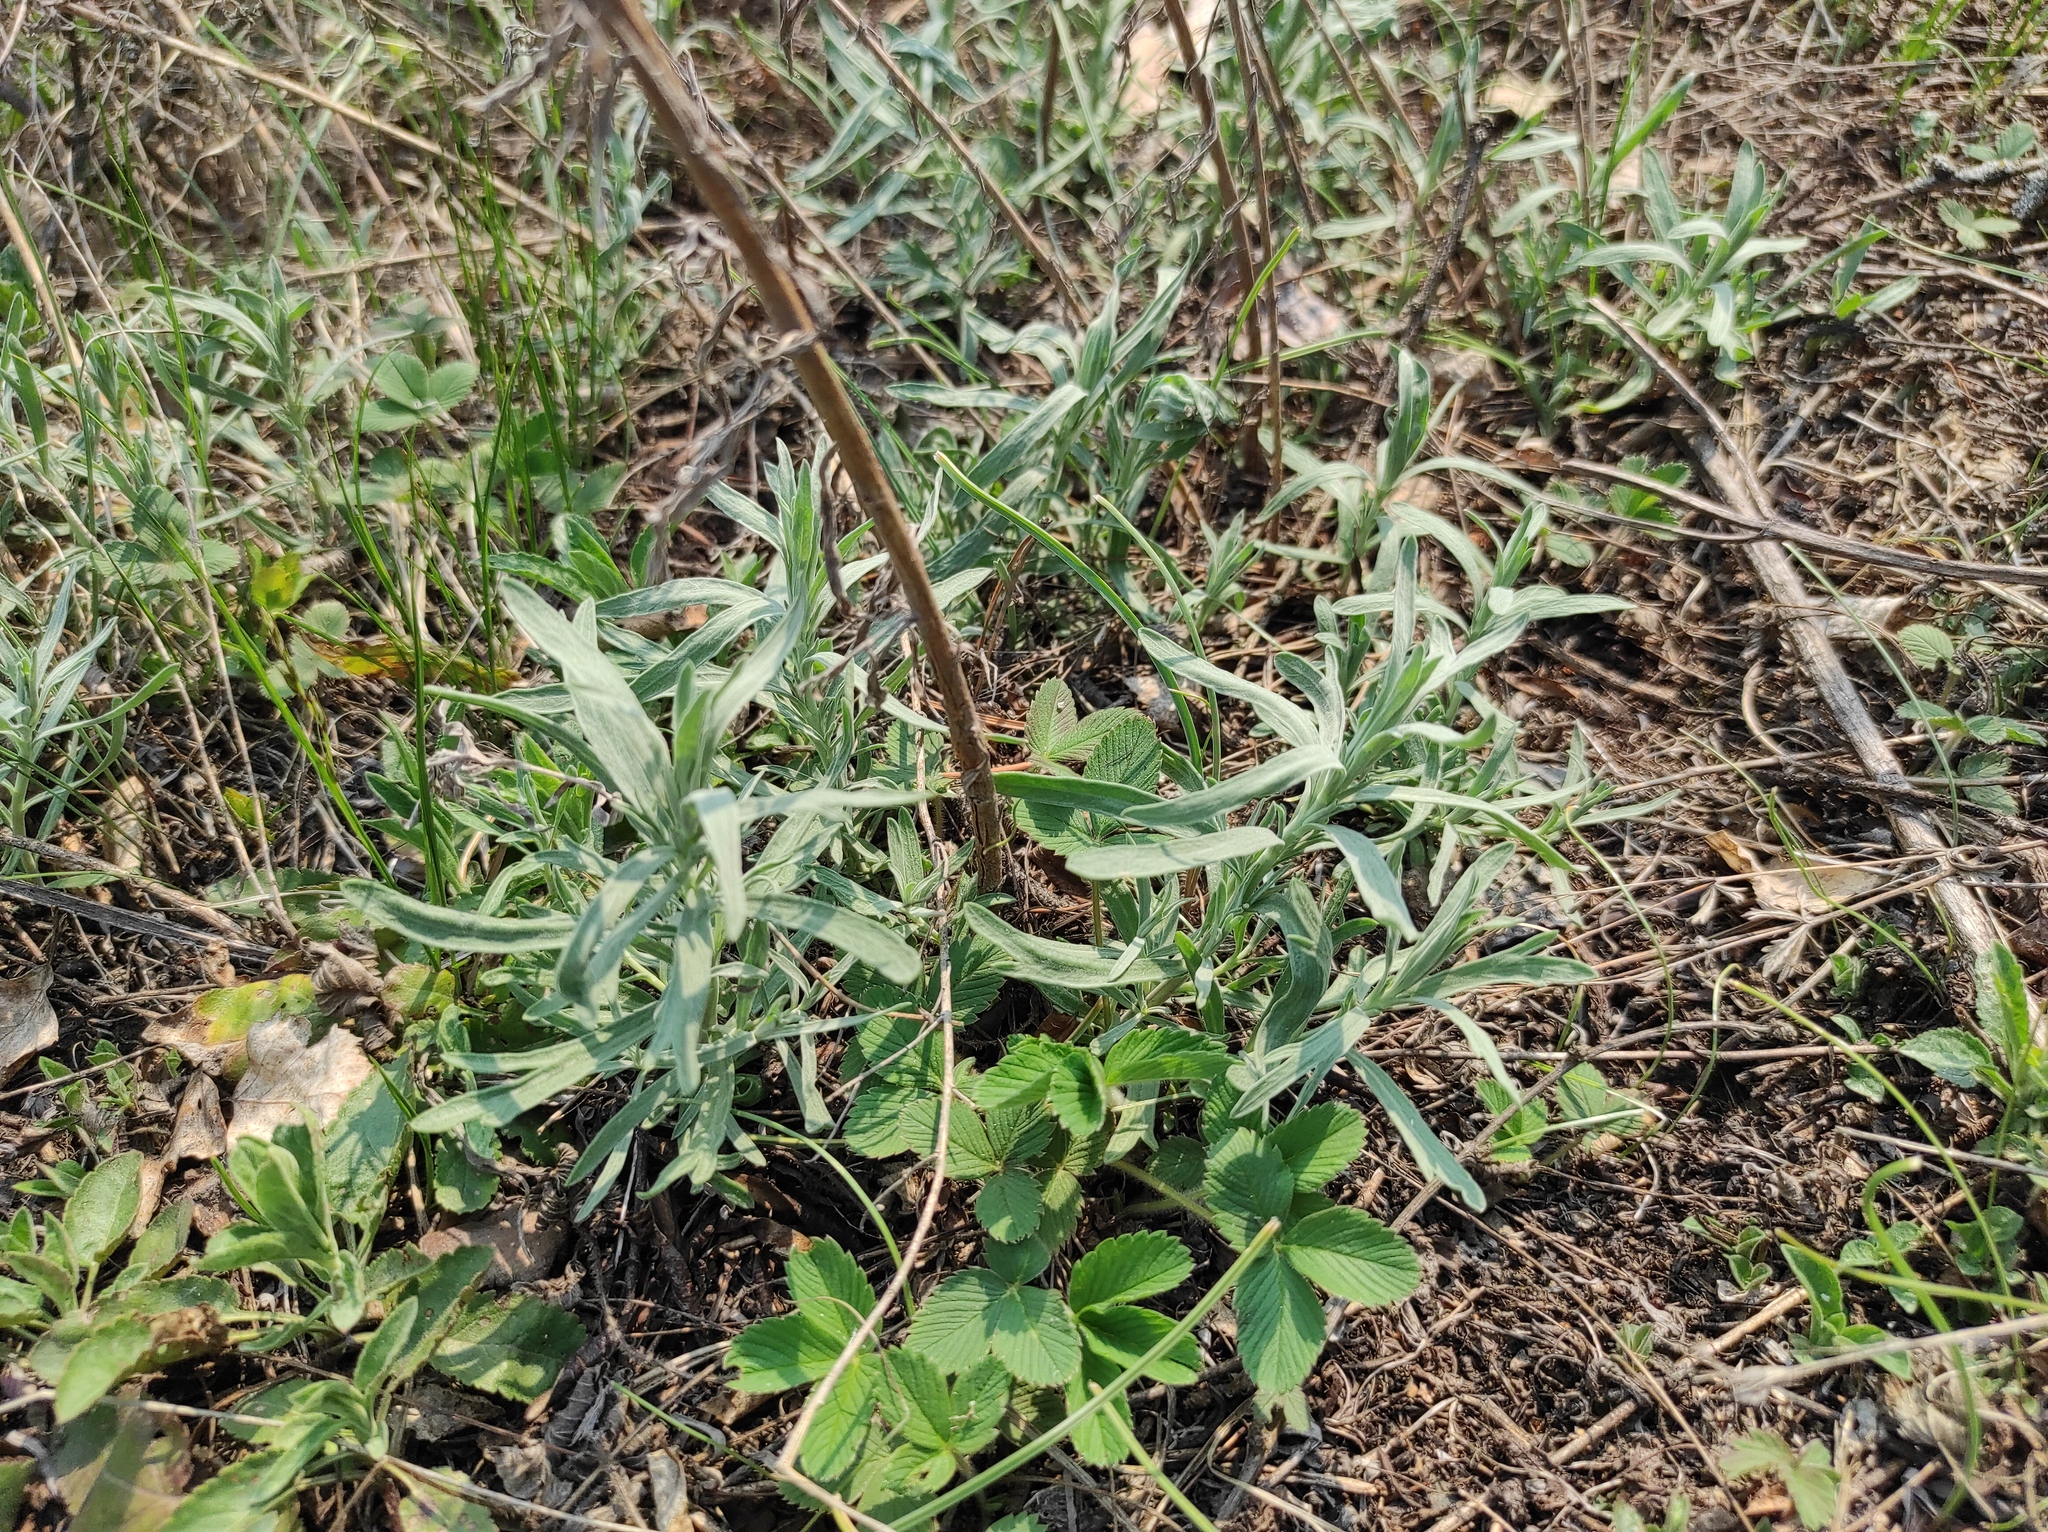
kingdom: Plantae
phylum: Tracheophyta
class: Magnoliopsida
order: Rosales
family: Rosaceae
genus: Fragaria
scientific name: Fragaria viridis
